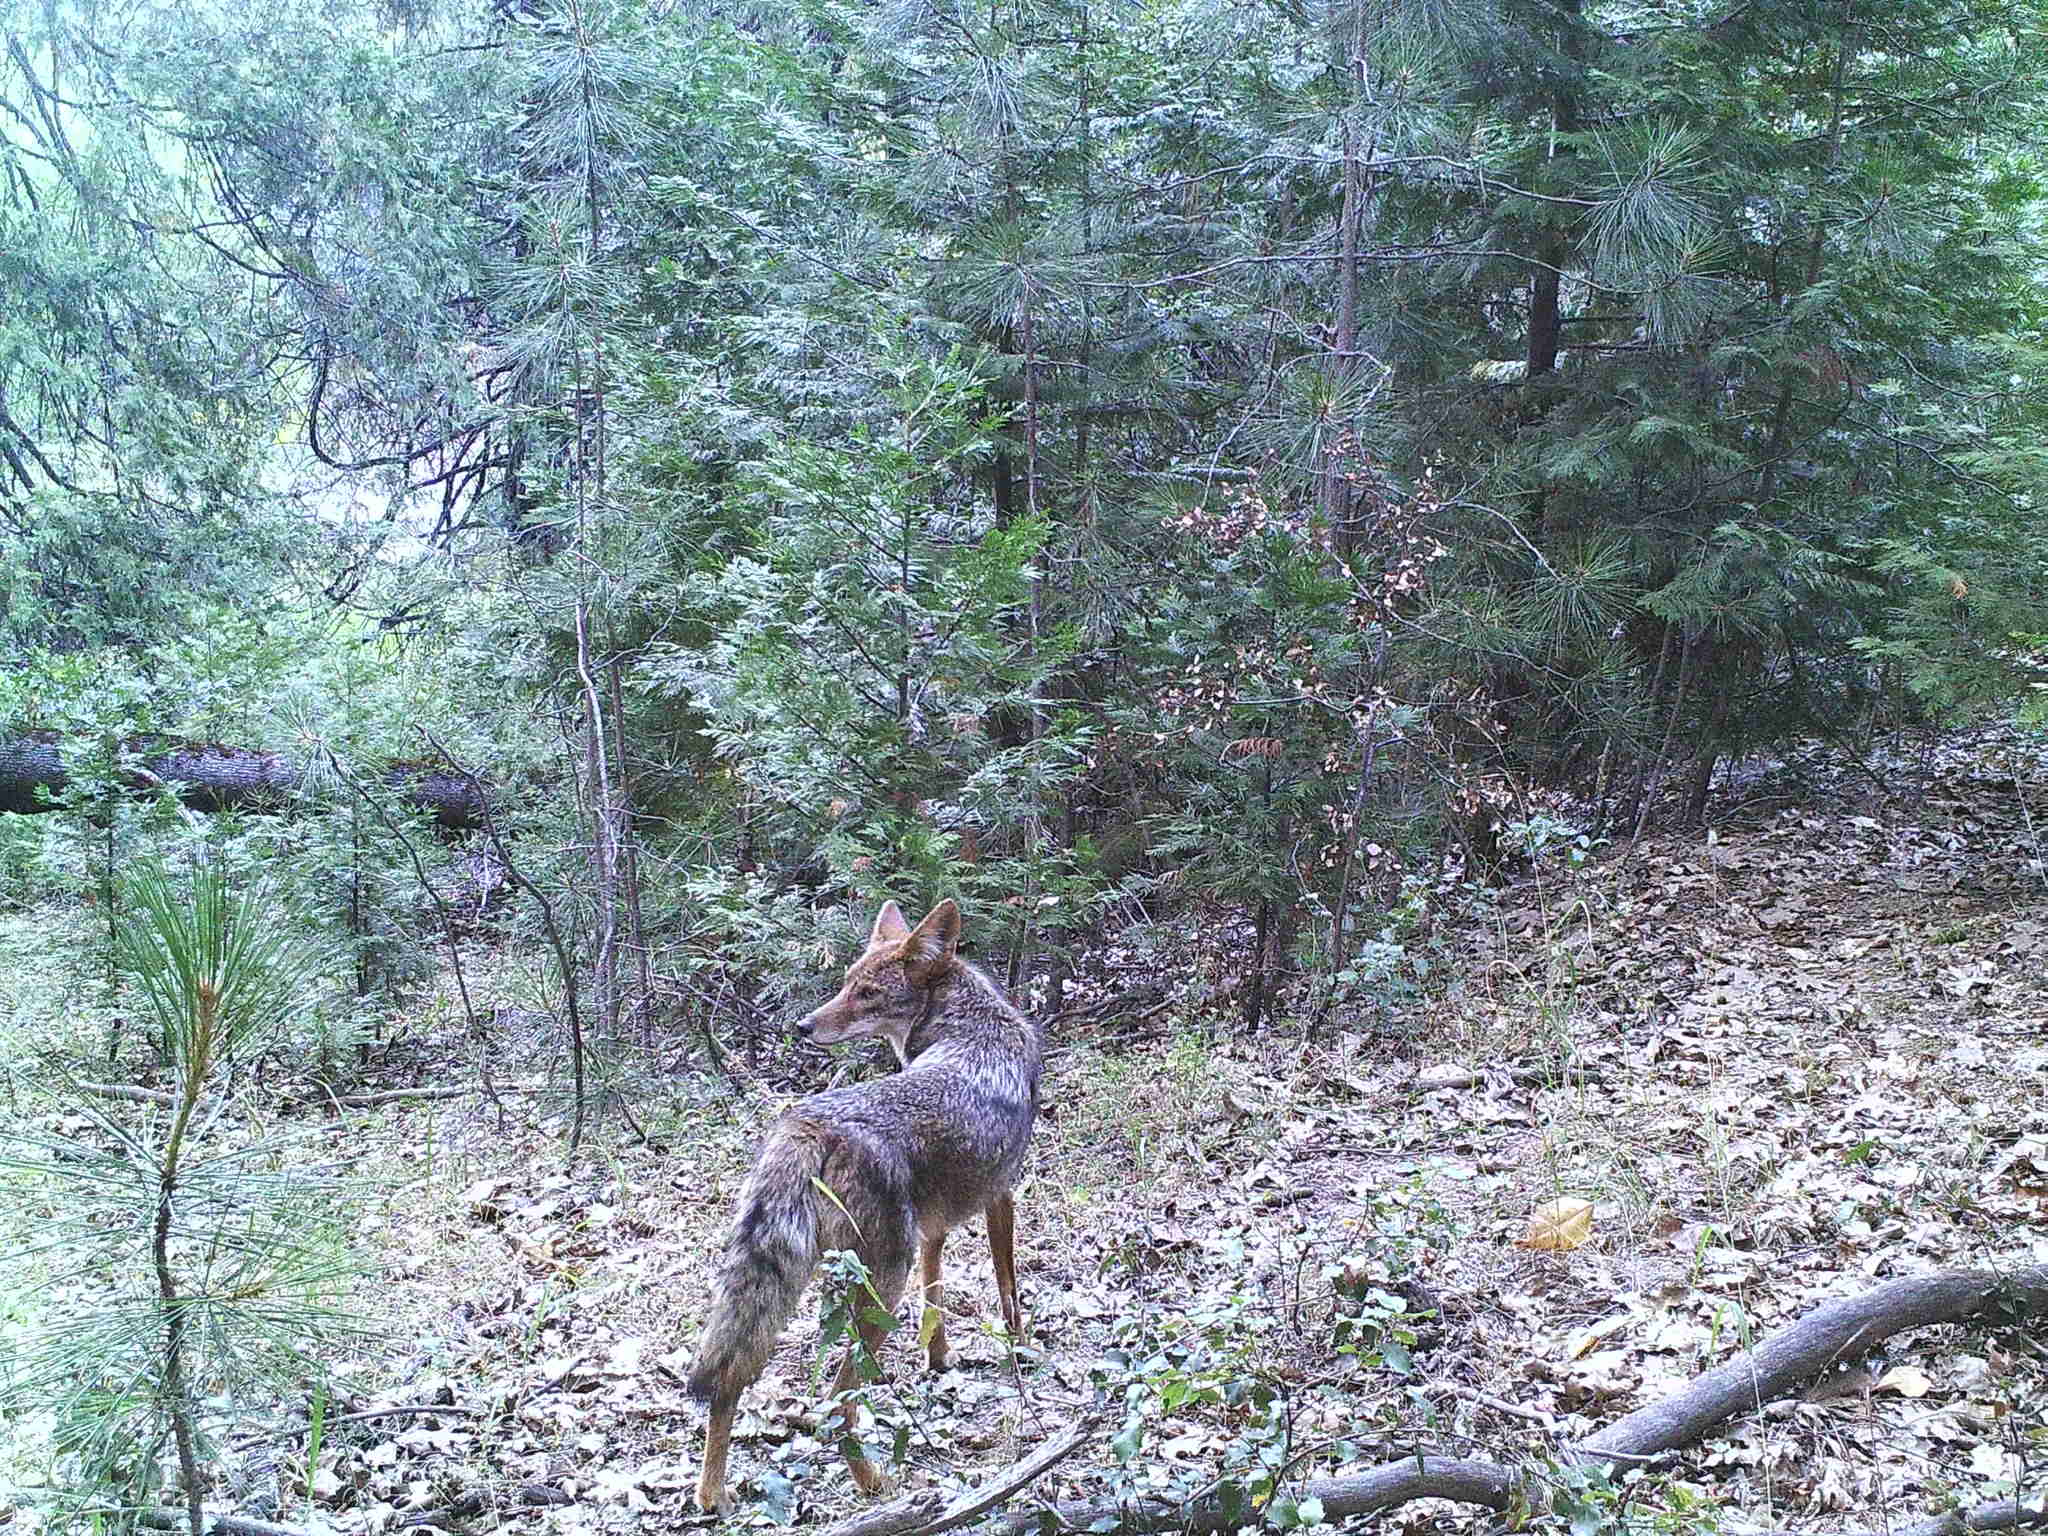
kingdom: Animalia
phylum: Chordata
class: Mammalia
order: Carnivora
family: Canidae
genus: Canis
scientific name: Canis latrans
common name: Coyote
